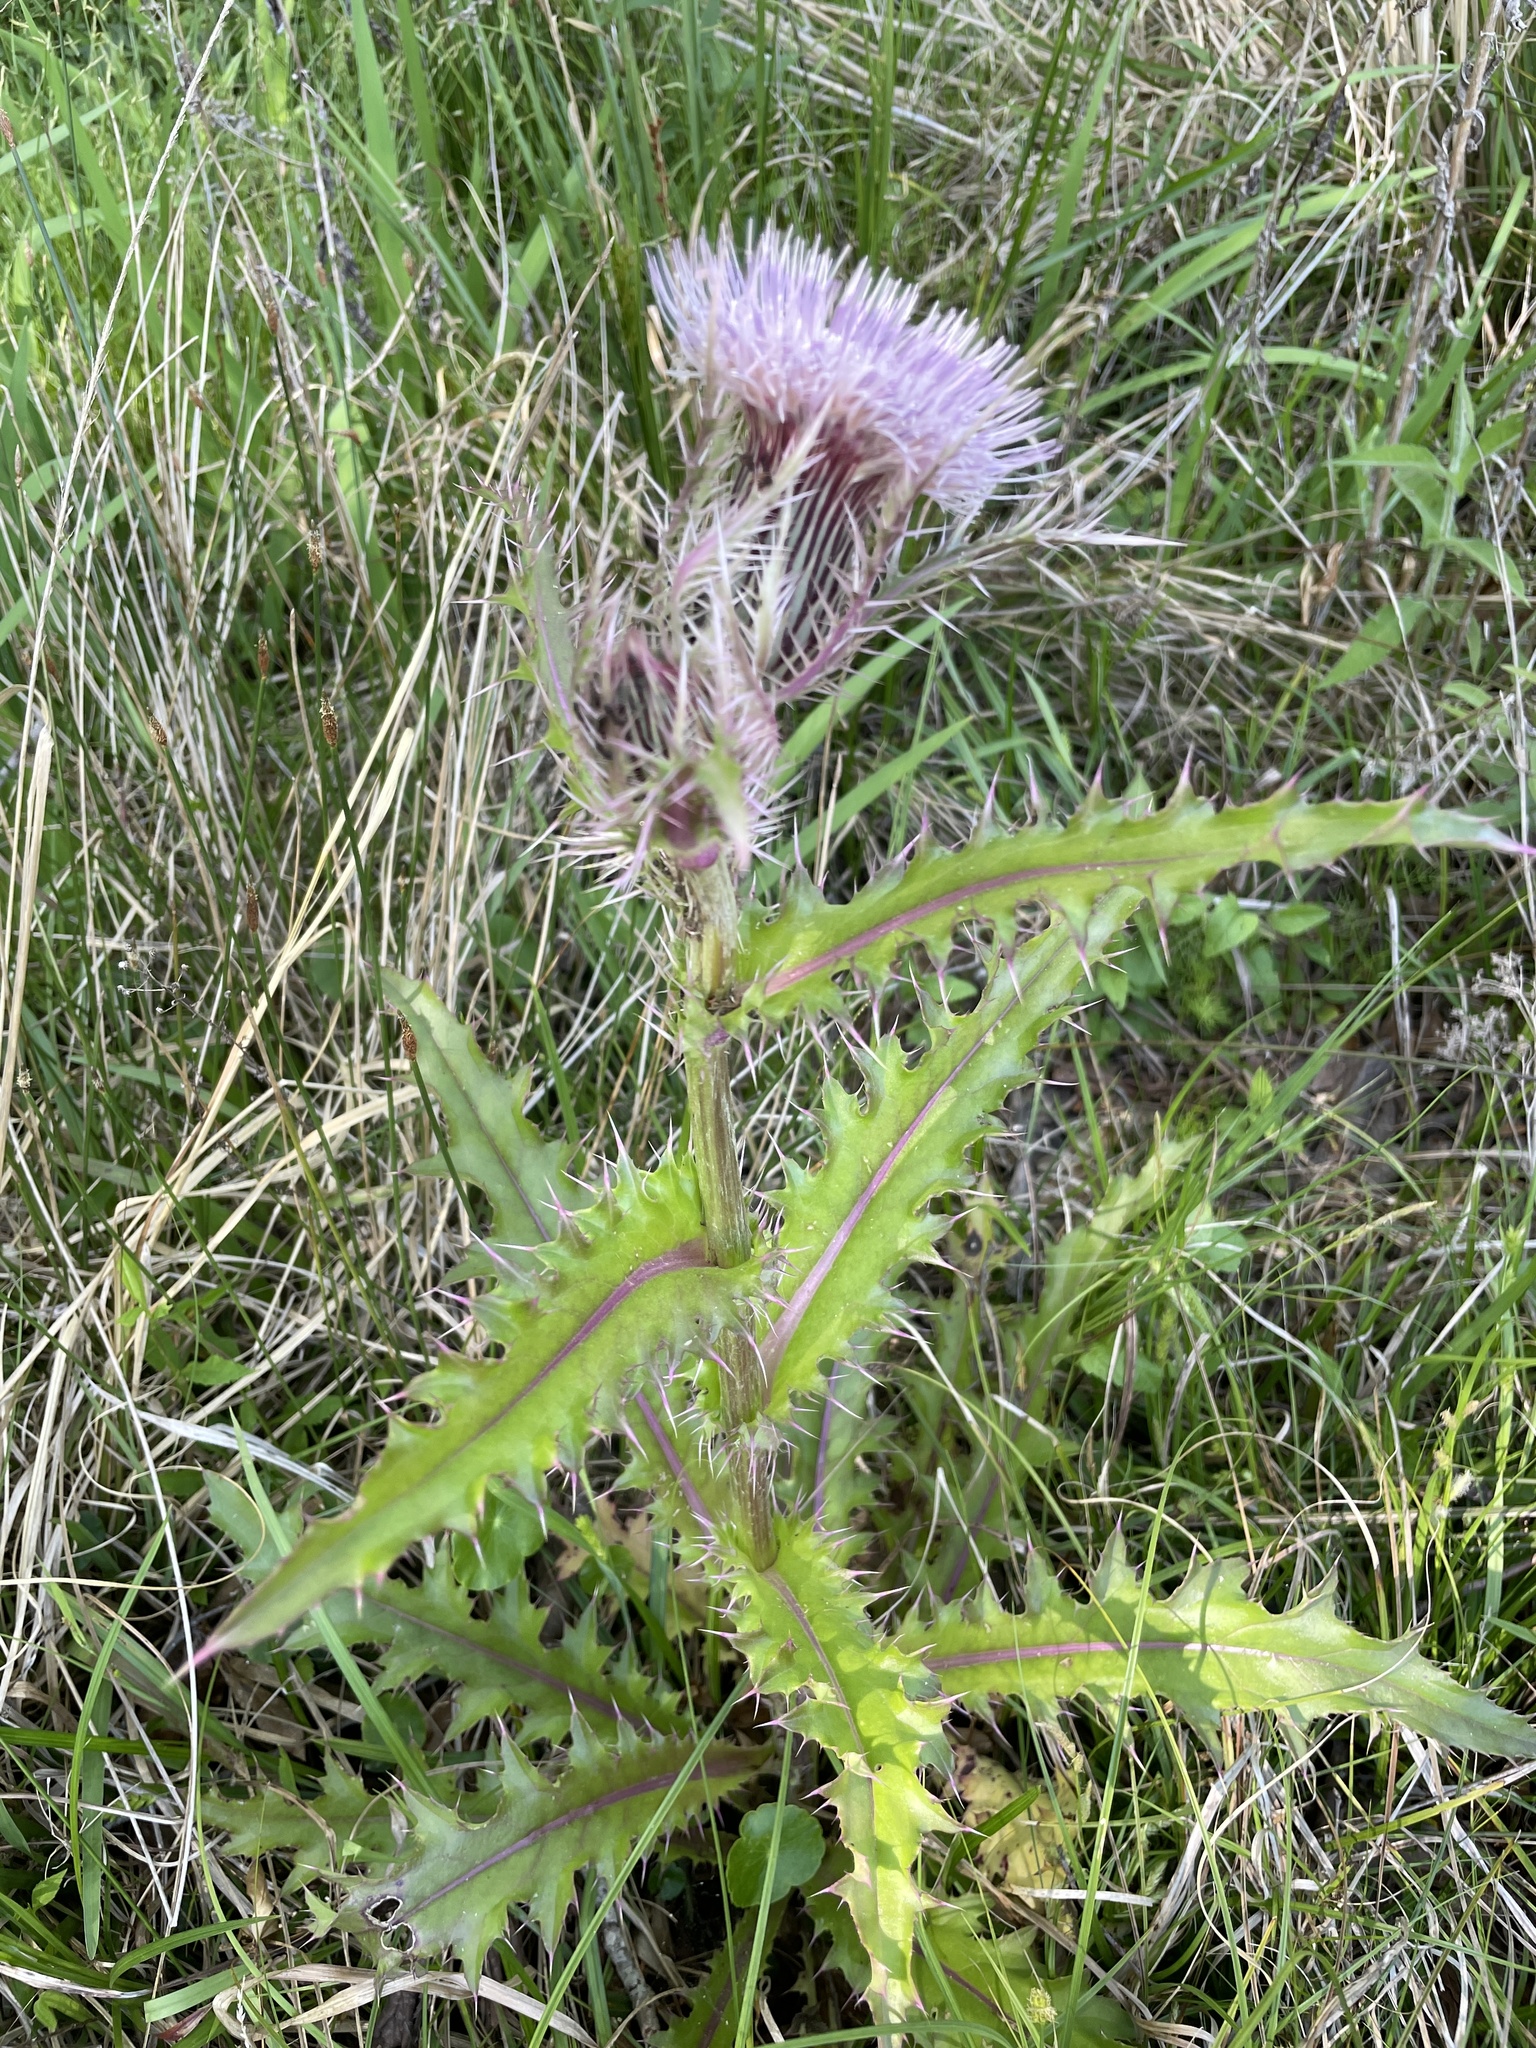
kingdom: Plantae
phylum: Tracheophyta
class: Magnoliopsida
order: Asterales
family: Asteraceae
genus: Cirsium
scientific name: Cirsium horridulum
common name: Bristly thistle
